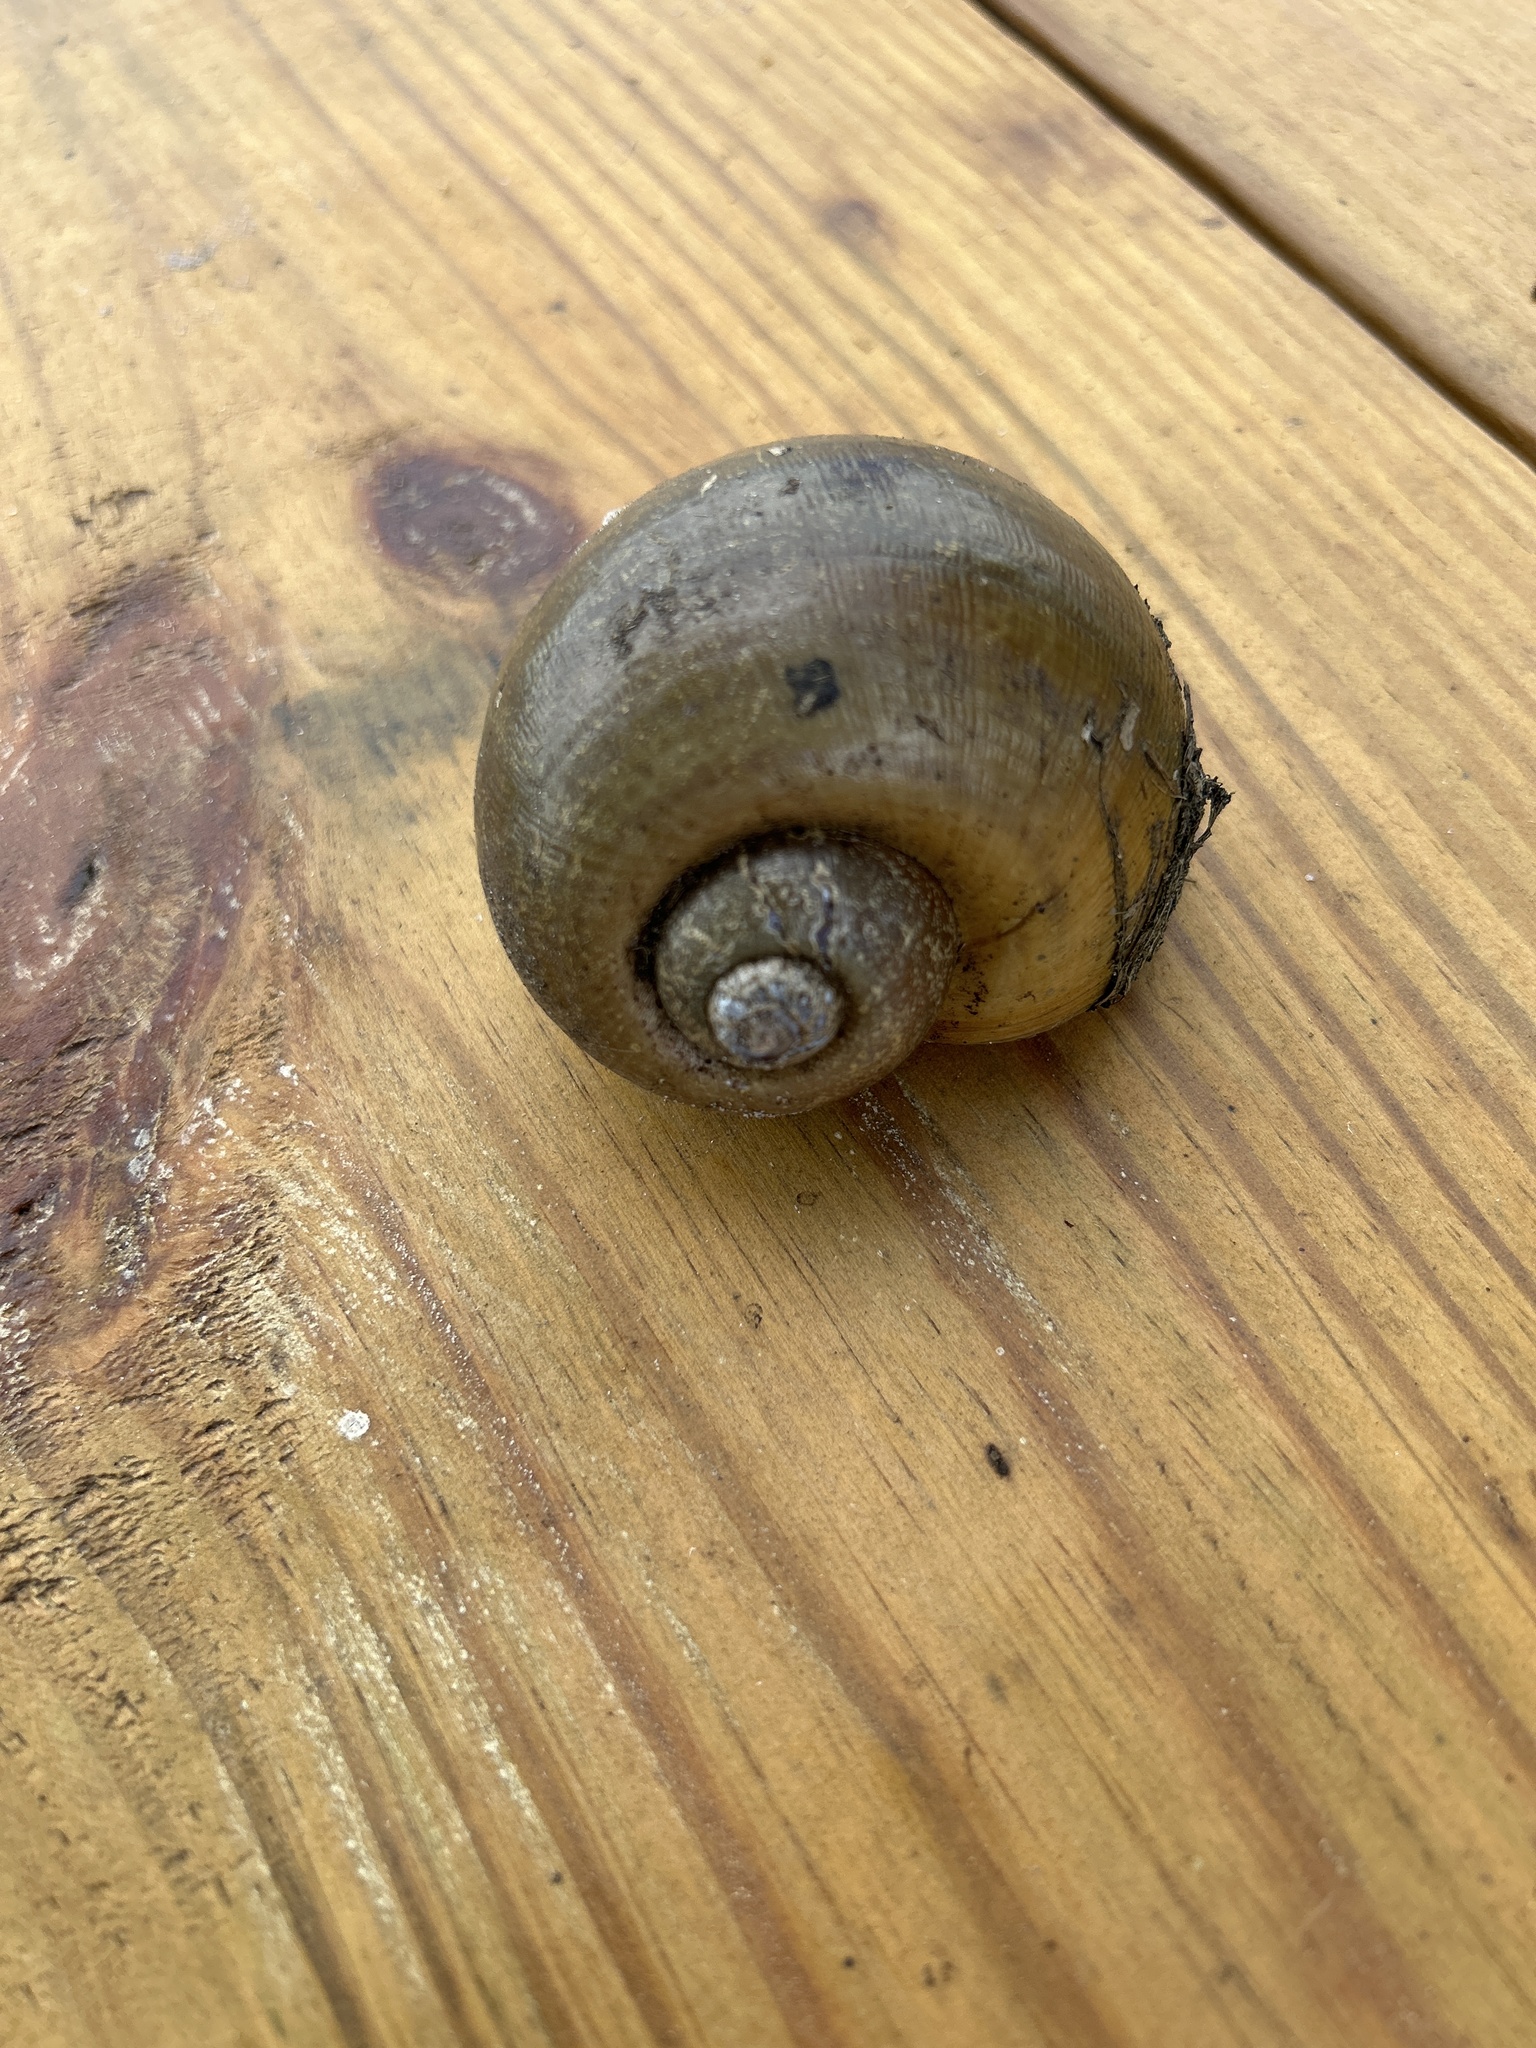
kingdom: Animalia
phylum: Mollusca
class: Gastropoda
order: Architaenioglossa
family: Ampullariidae
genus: Pomacea
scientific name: Pomacea maculata
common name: Giant applesnail
